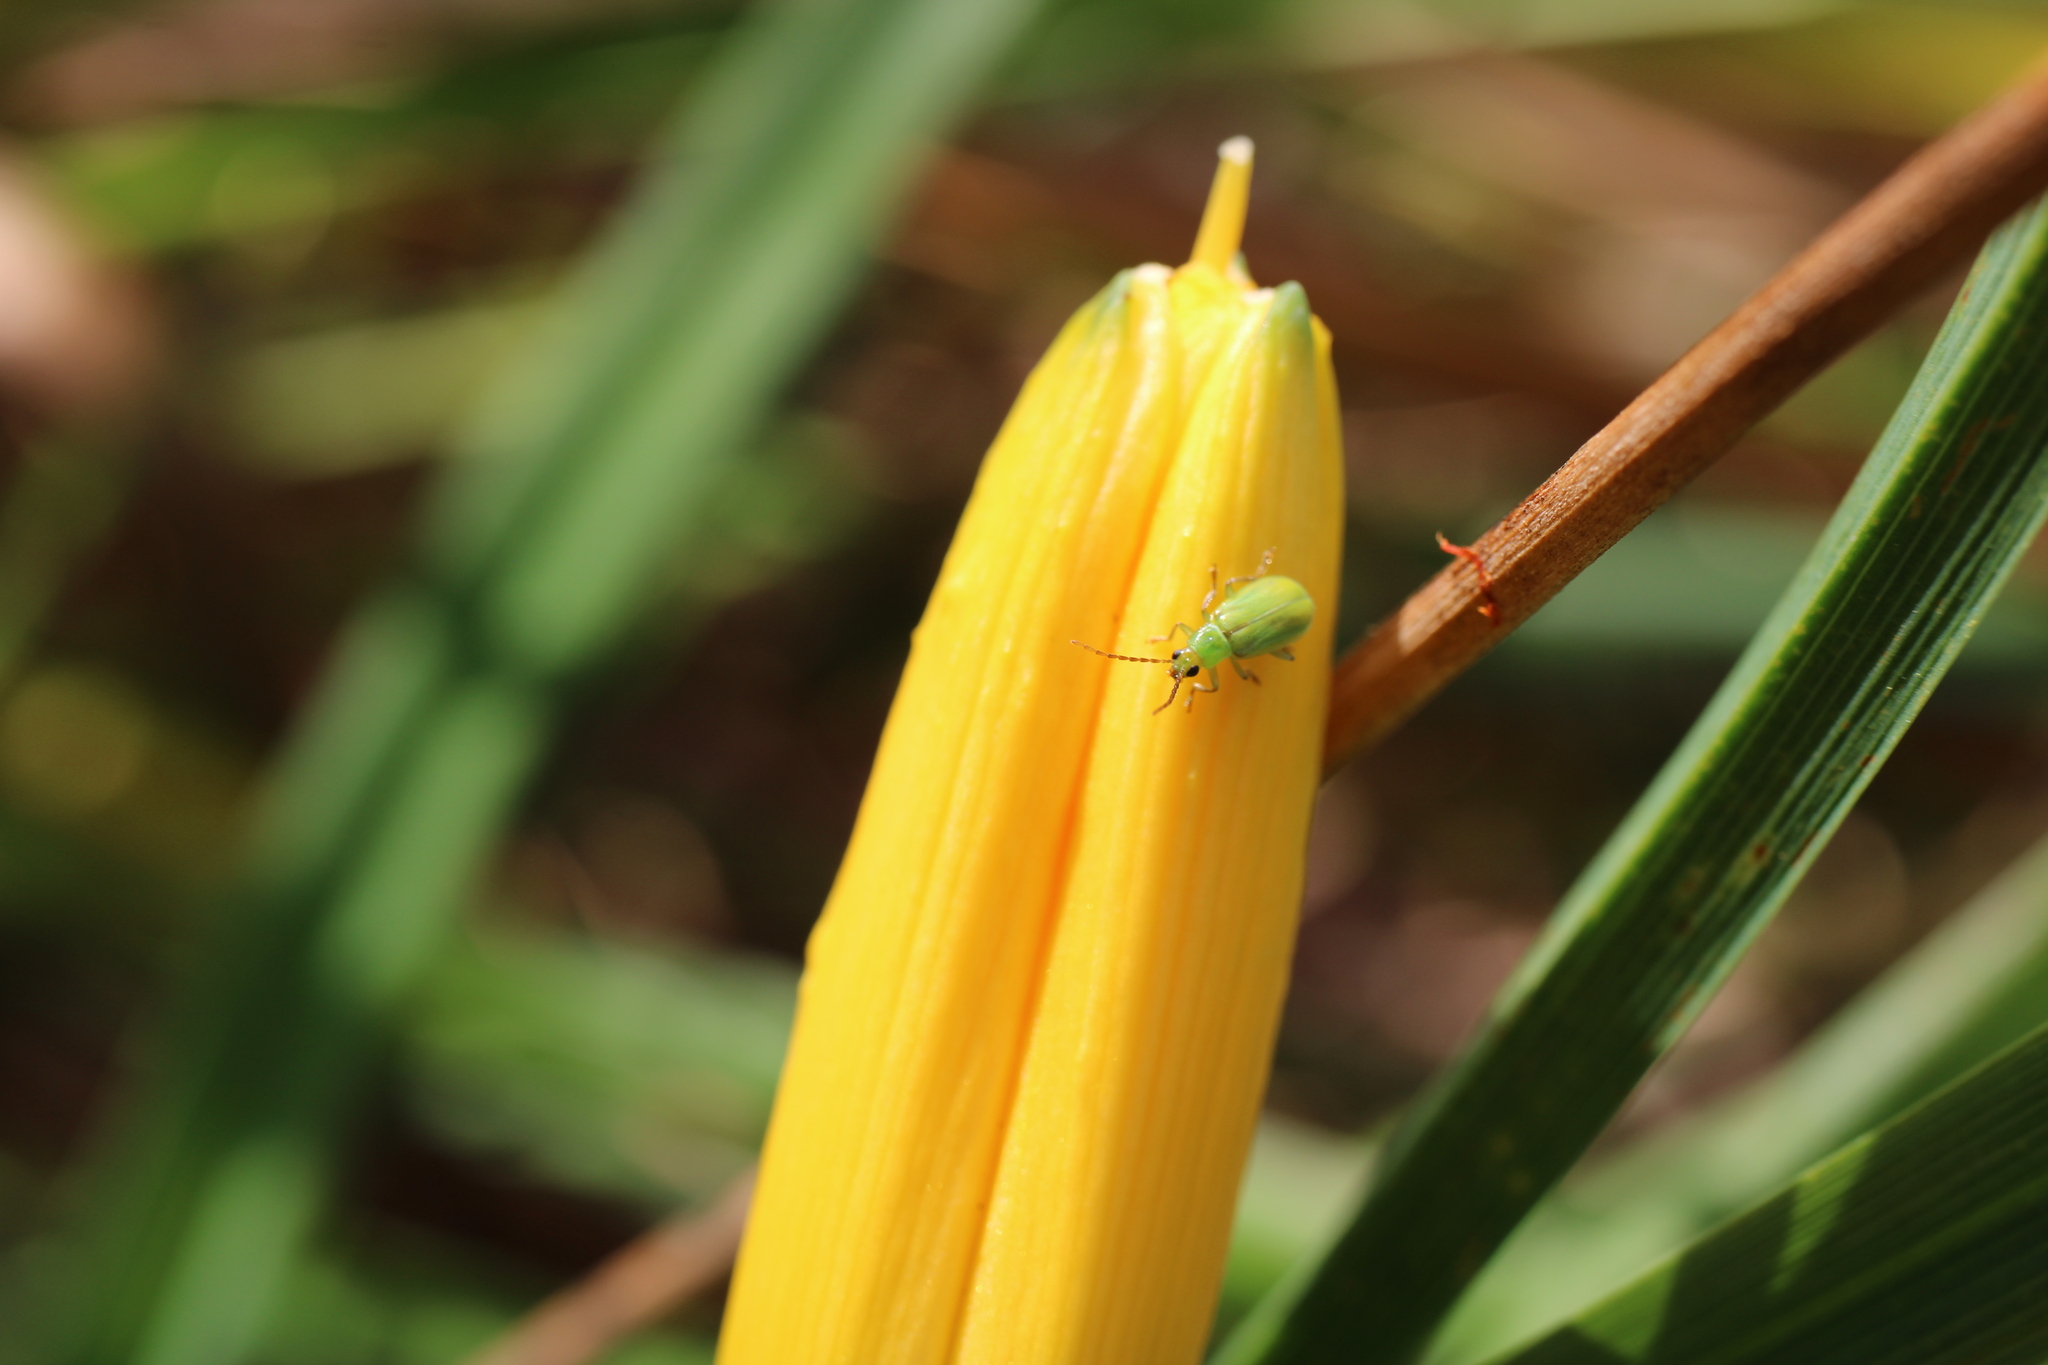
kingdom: Animalia
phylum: Arthropoda
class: Insecta
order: Coleoptera
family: Chrysomelidae
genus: Diabrotica
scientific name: Diabrotica barberi
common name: Northern corn rootworm
